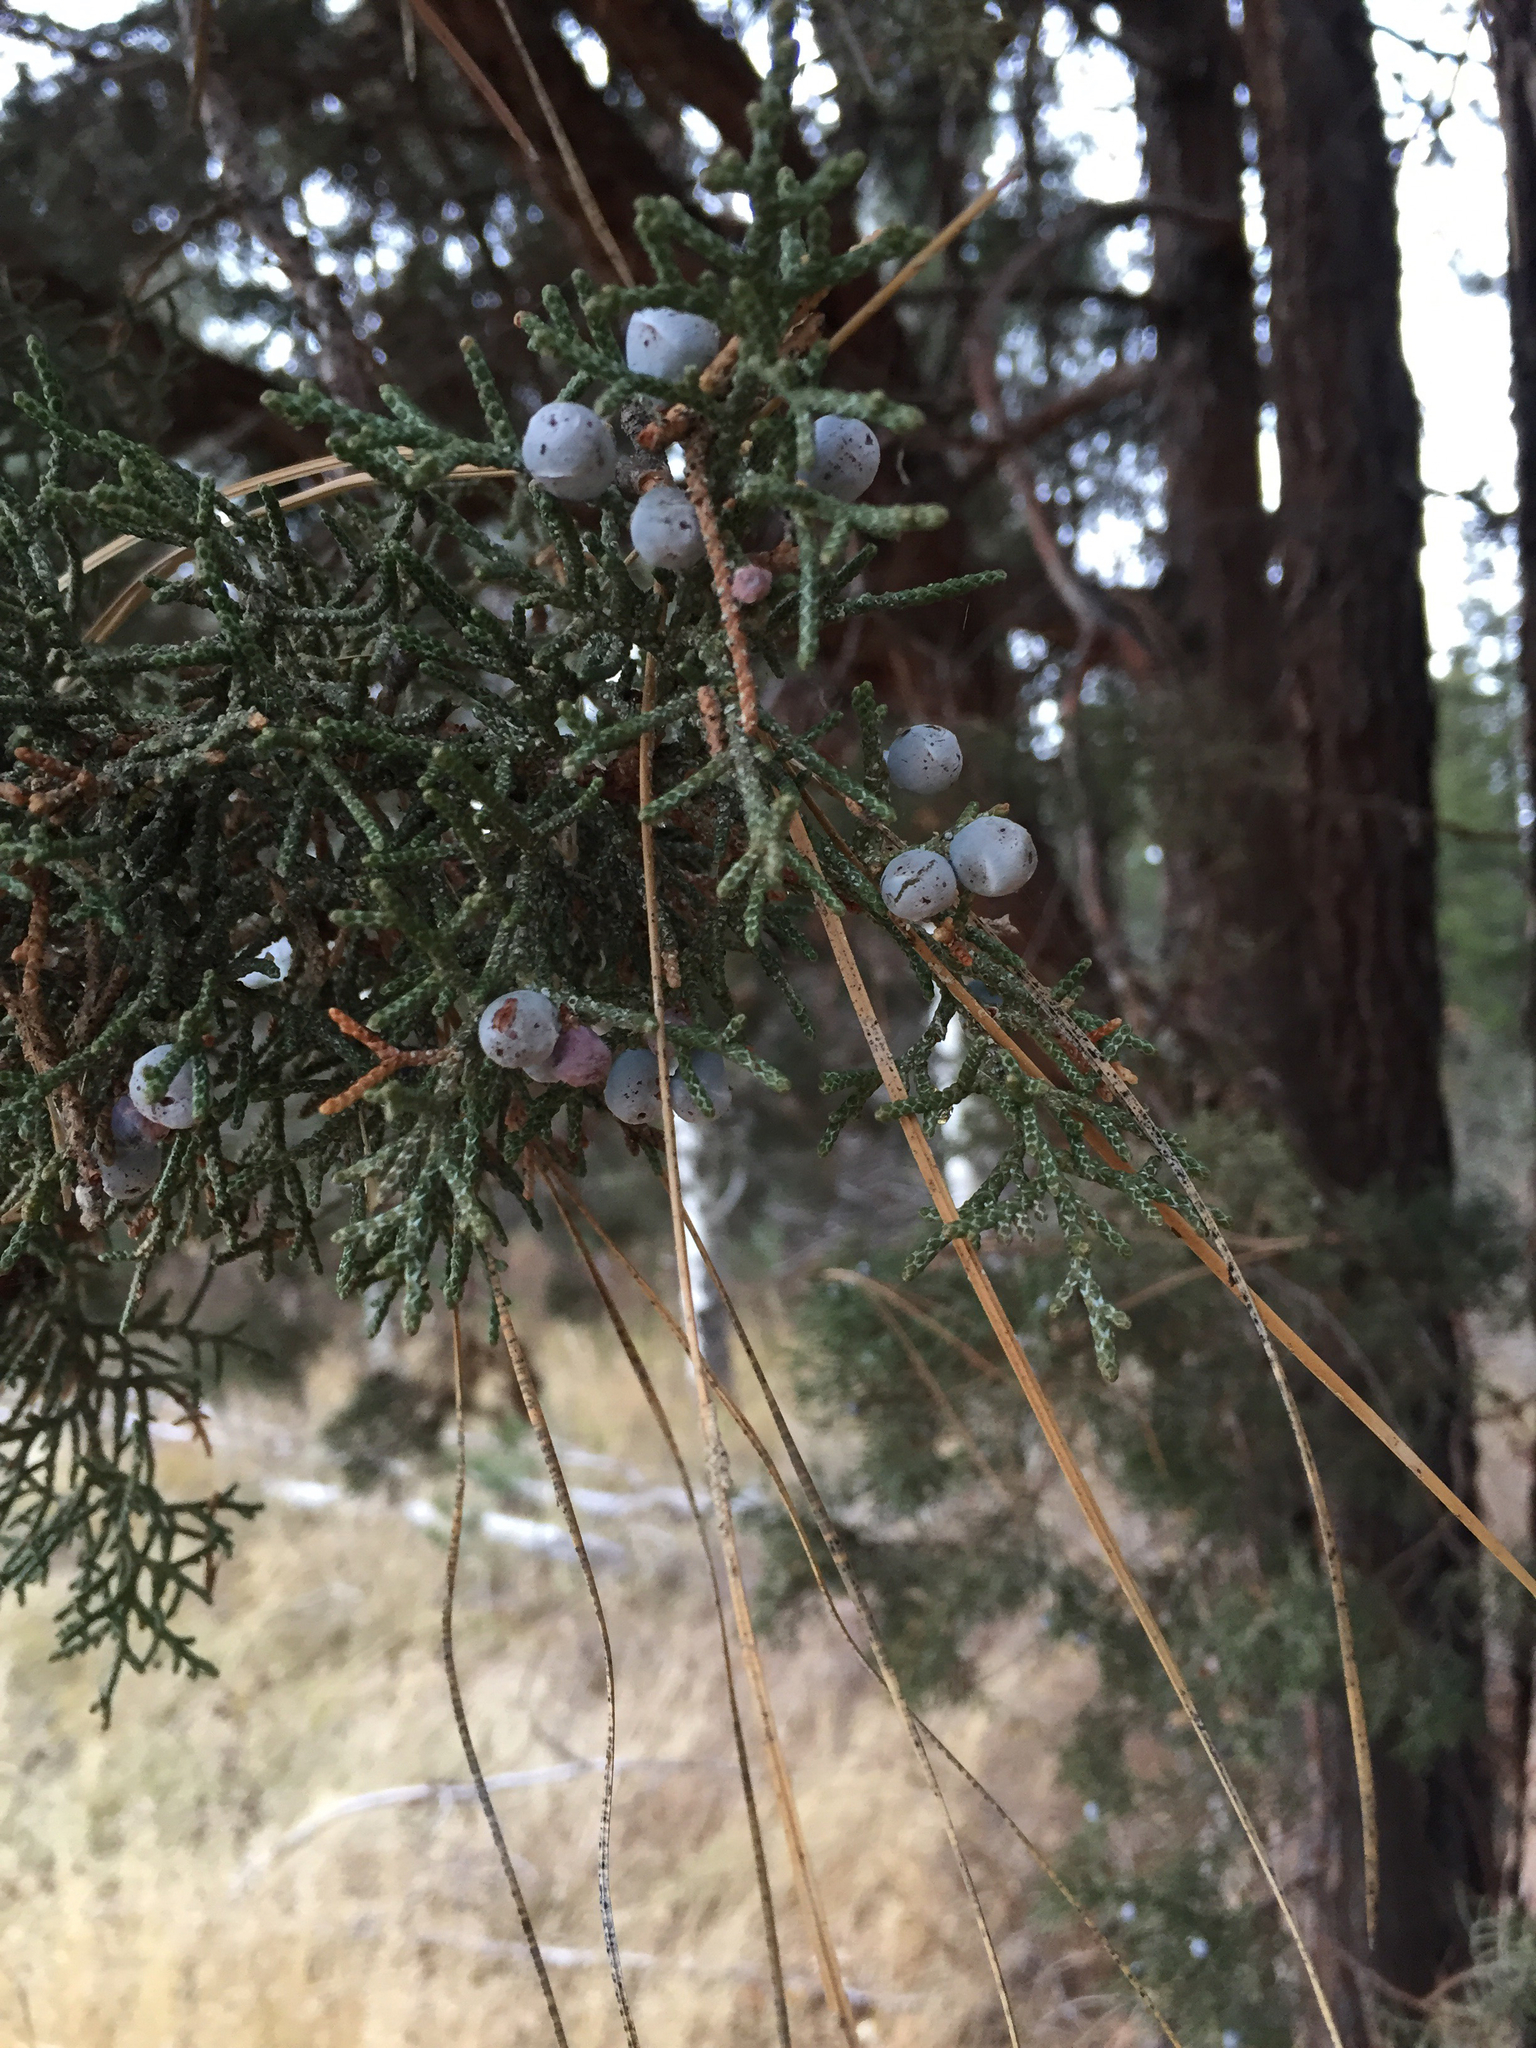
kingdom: Plantae
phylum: Tracheophyta
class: Pinopsida
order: Pinales
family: Cupressaceae
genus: Juniperus
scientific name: Juniperus occidentalis
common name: Western juniper
